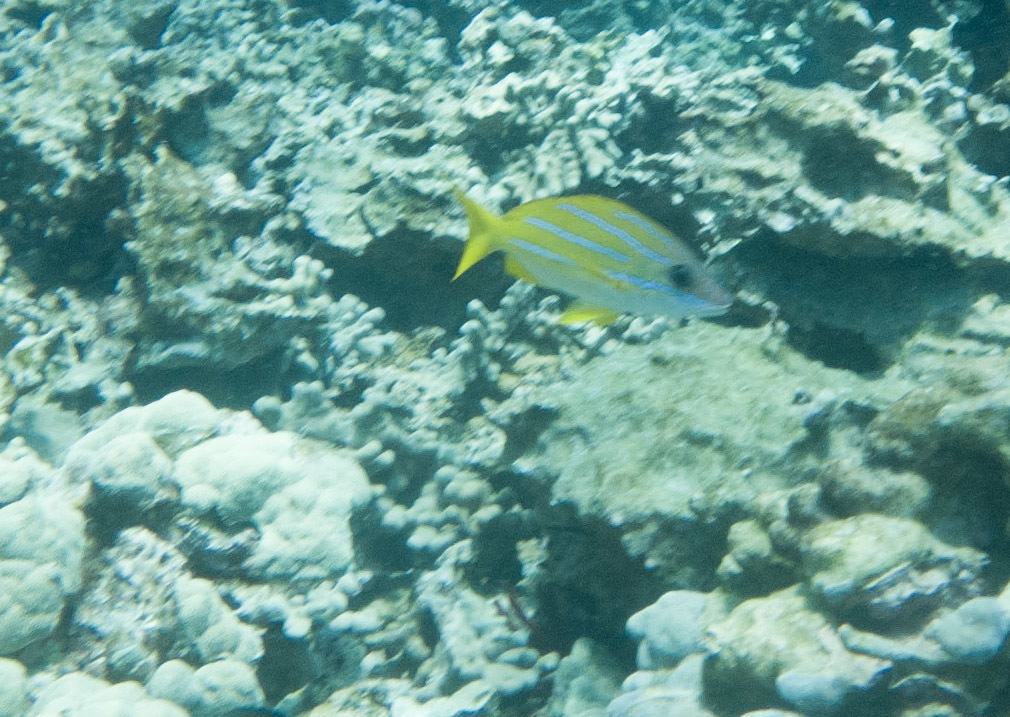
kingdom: Animalia
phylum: Chordata
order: Perciformes
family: Lutjanidae
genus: Lutjanus
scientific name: Lutjanus kasmira
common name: Common bluestripe snapper
